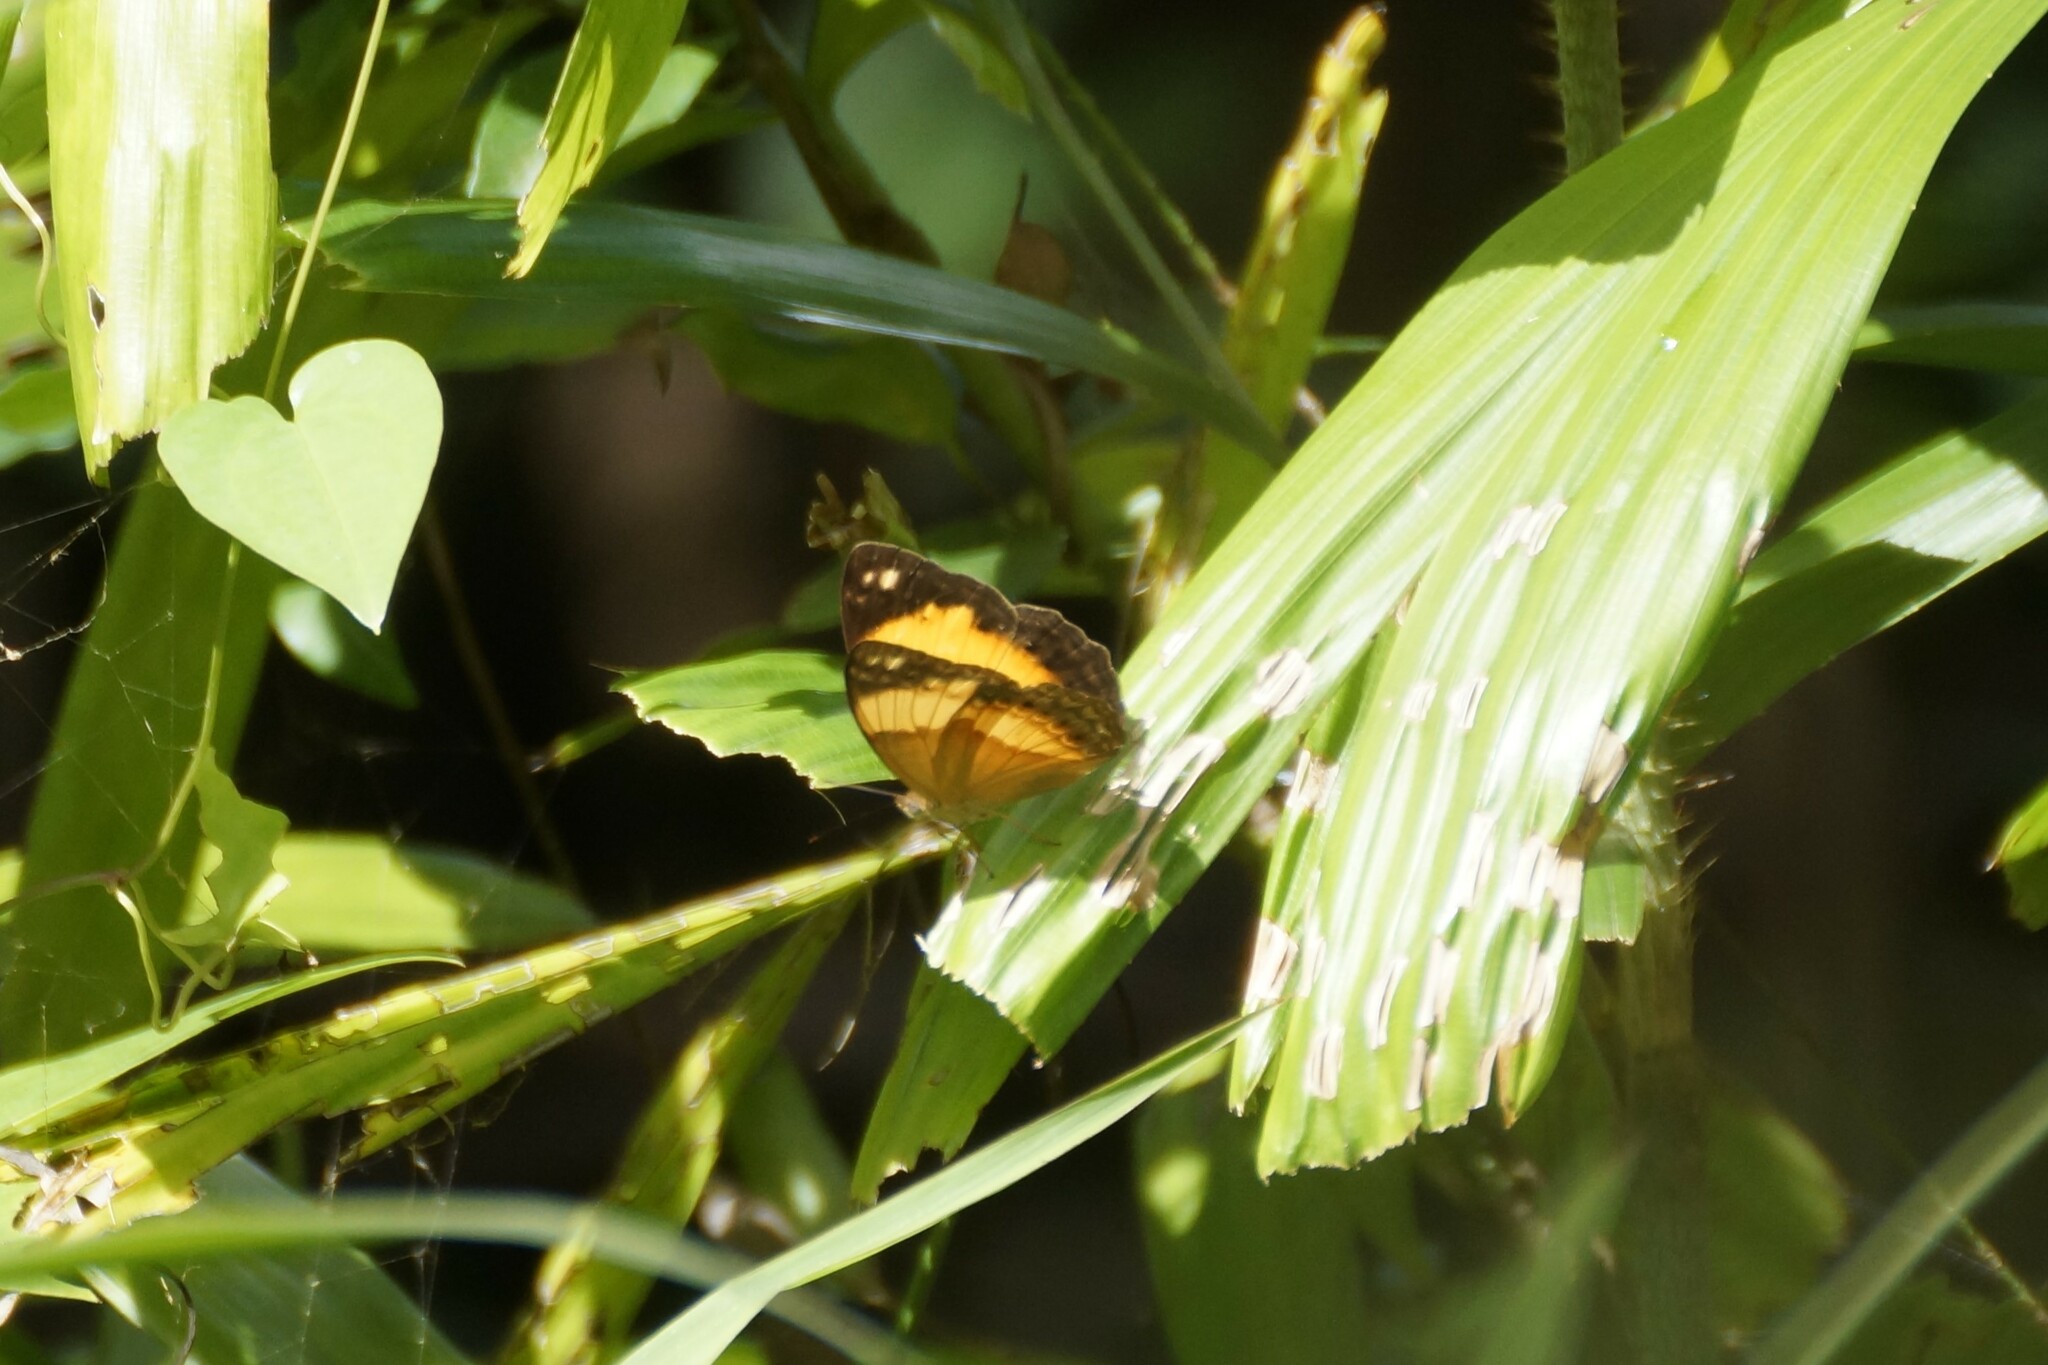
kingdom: Animalia
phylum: Arthropoda
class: Insecta
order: Lepidoptera
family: Nymphalidae
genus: Cupha
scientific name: Cupha prosope
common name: Bordered rustic
